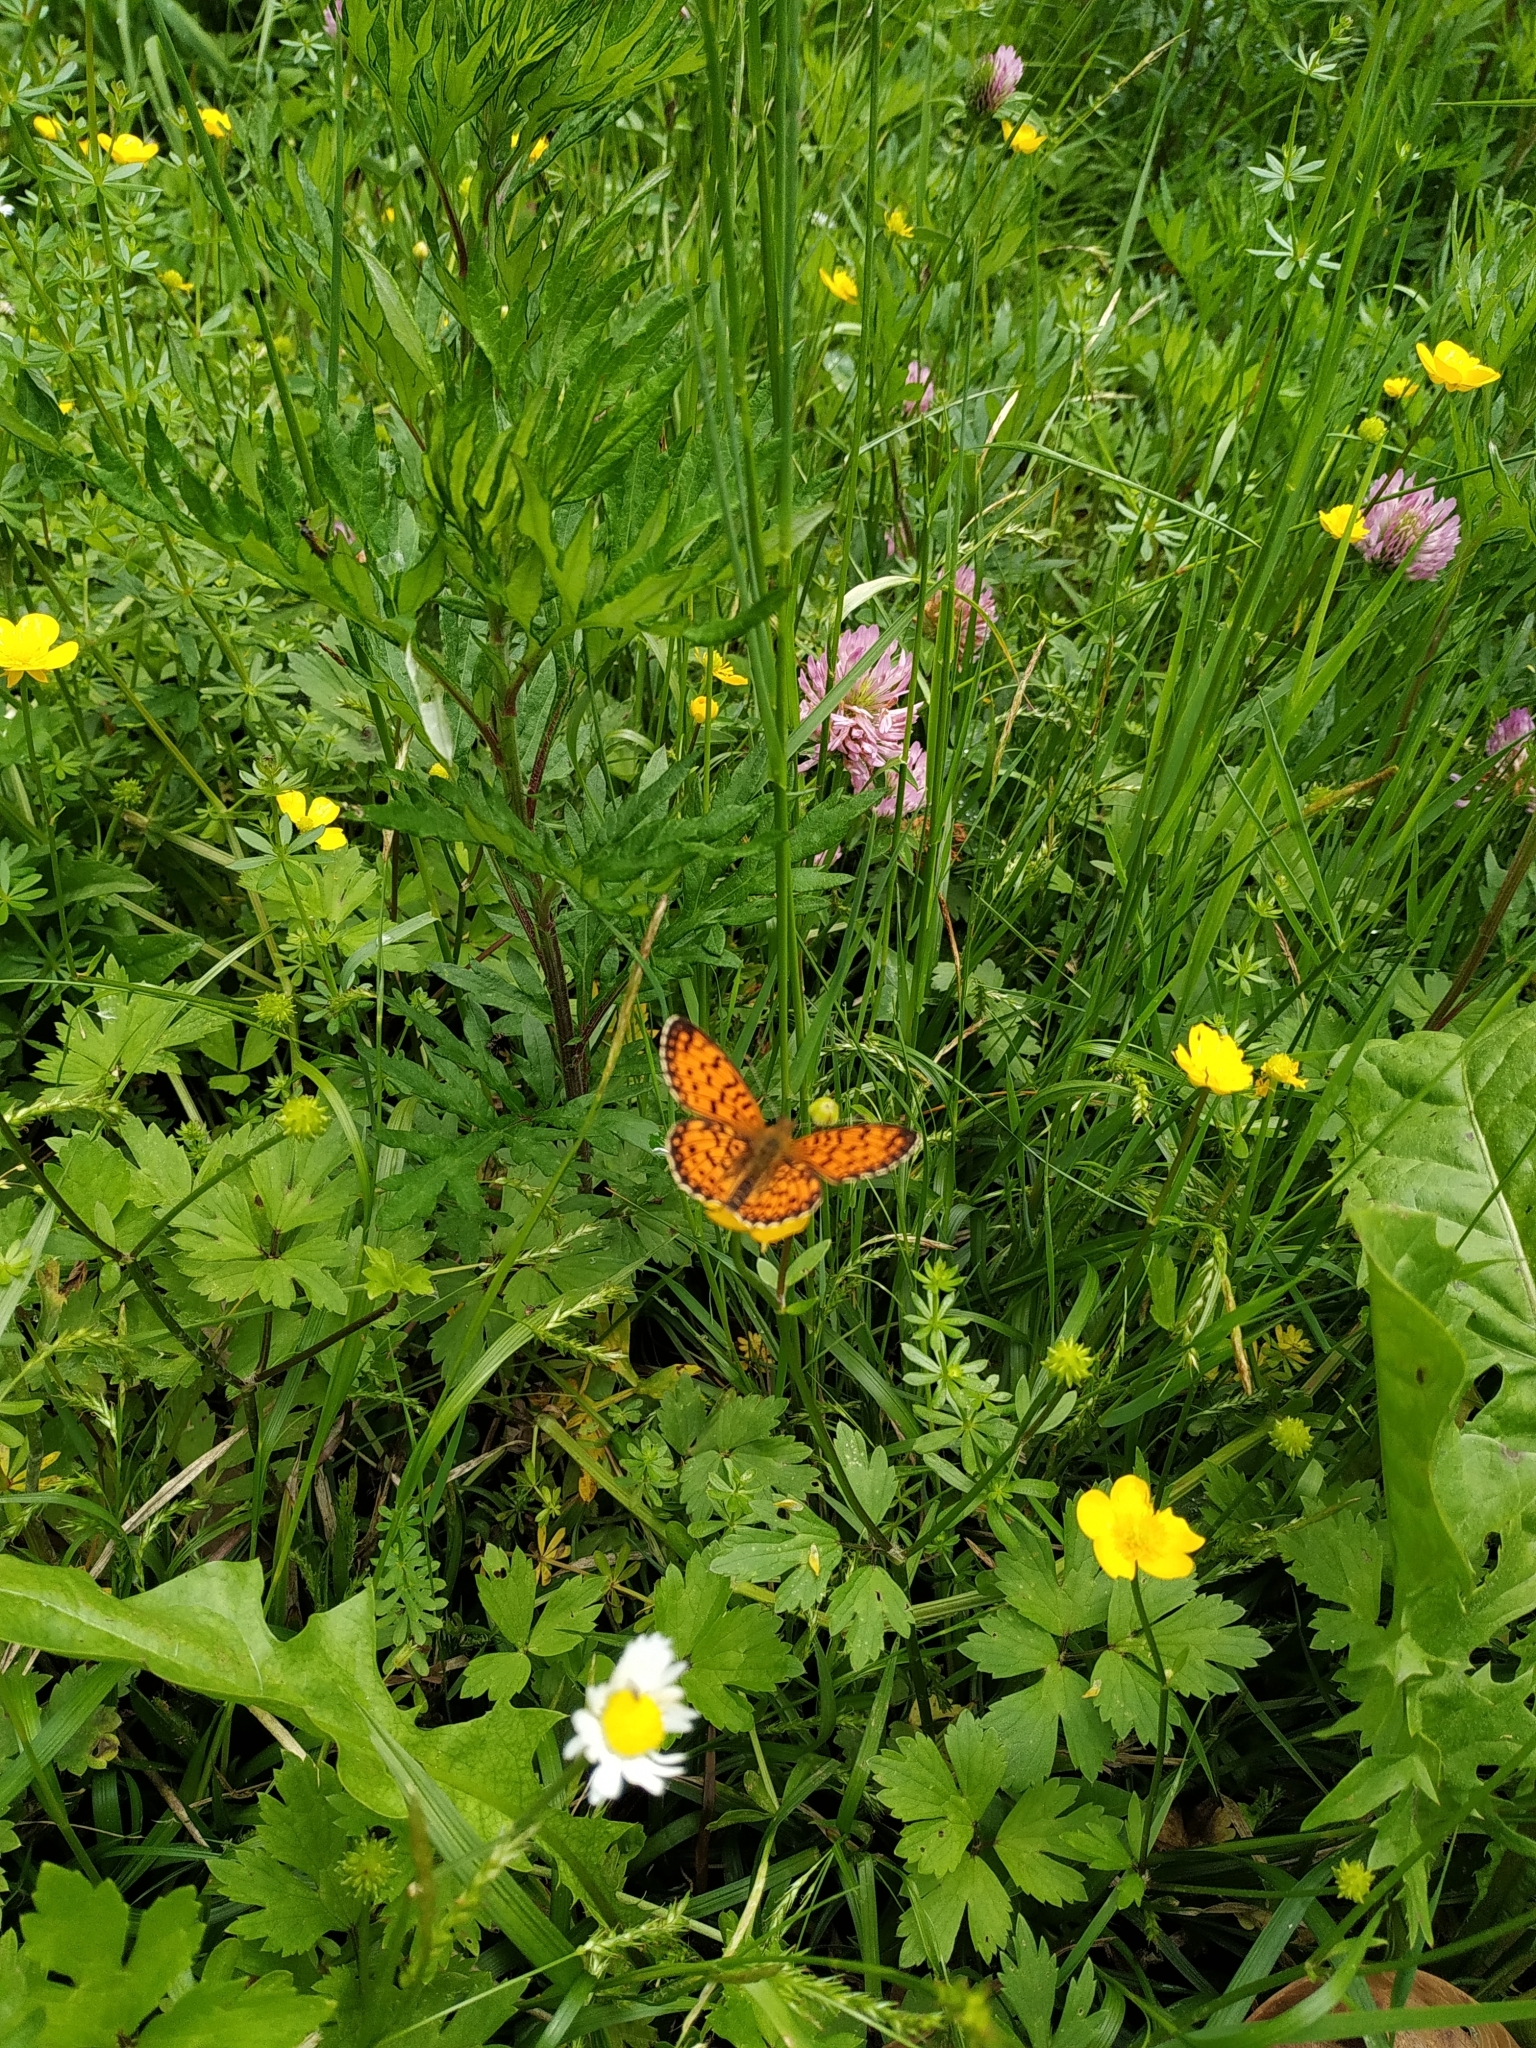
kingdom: Animalia
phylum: Arthropoda
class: Insecta
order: Lepidoptera
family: Nymphalidae
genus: Boloria
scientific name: Boloria selene
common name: Small pearl-bordered fritillary
